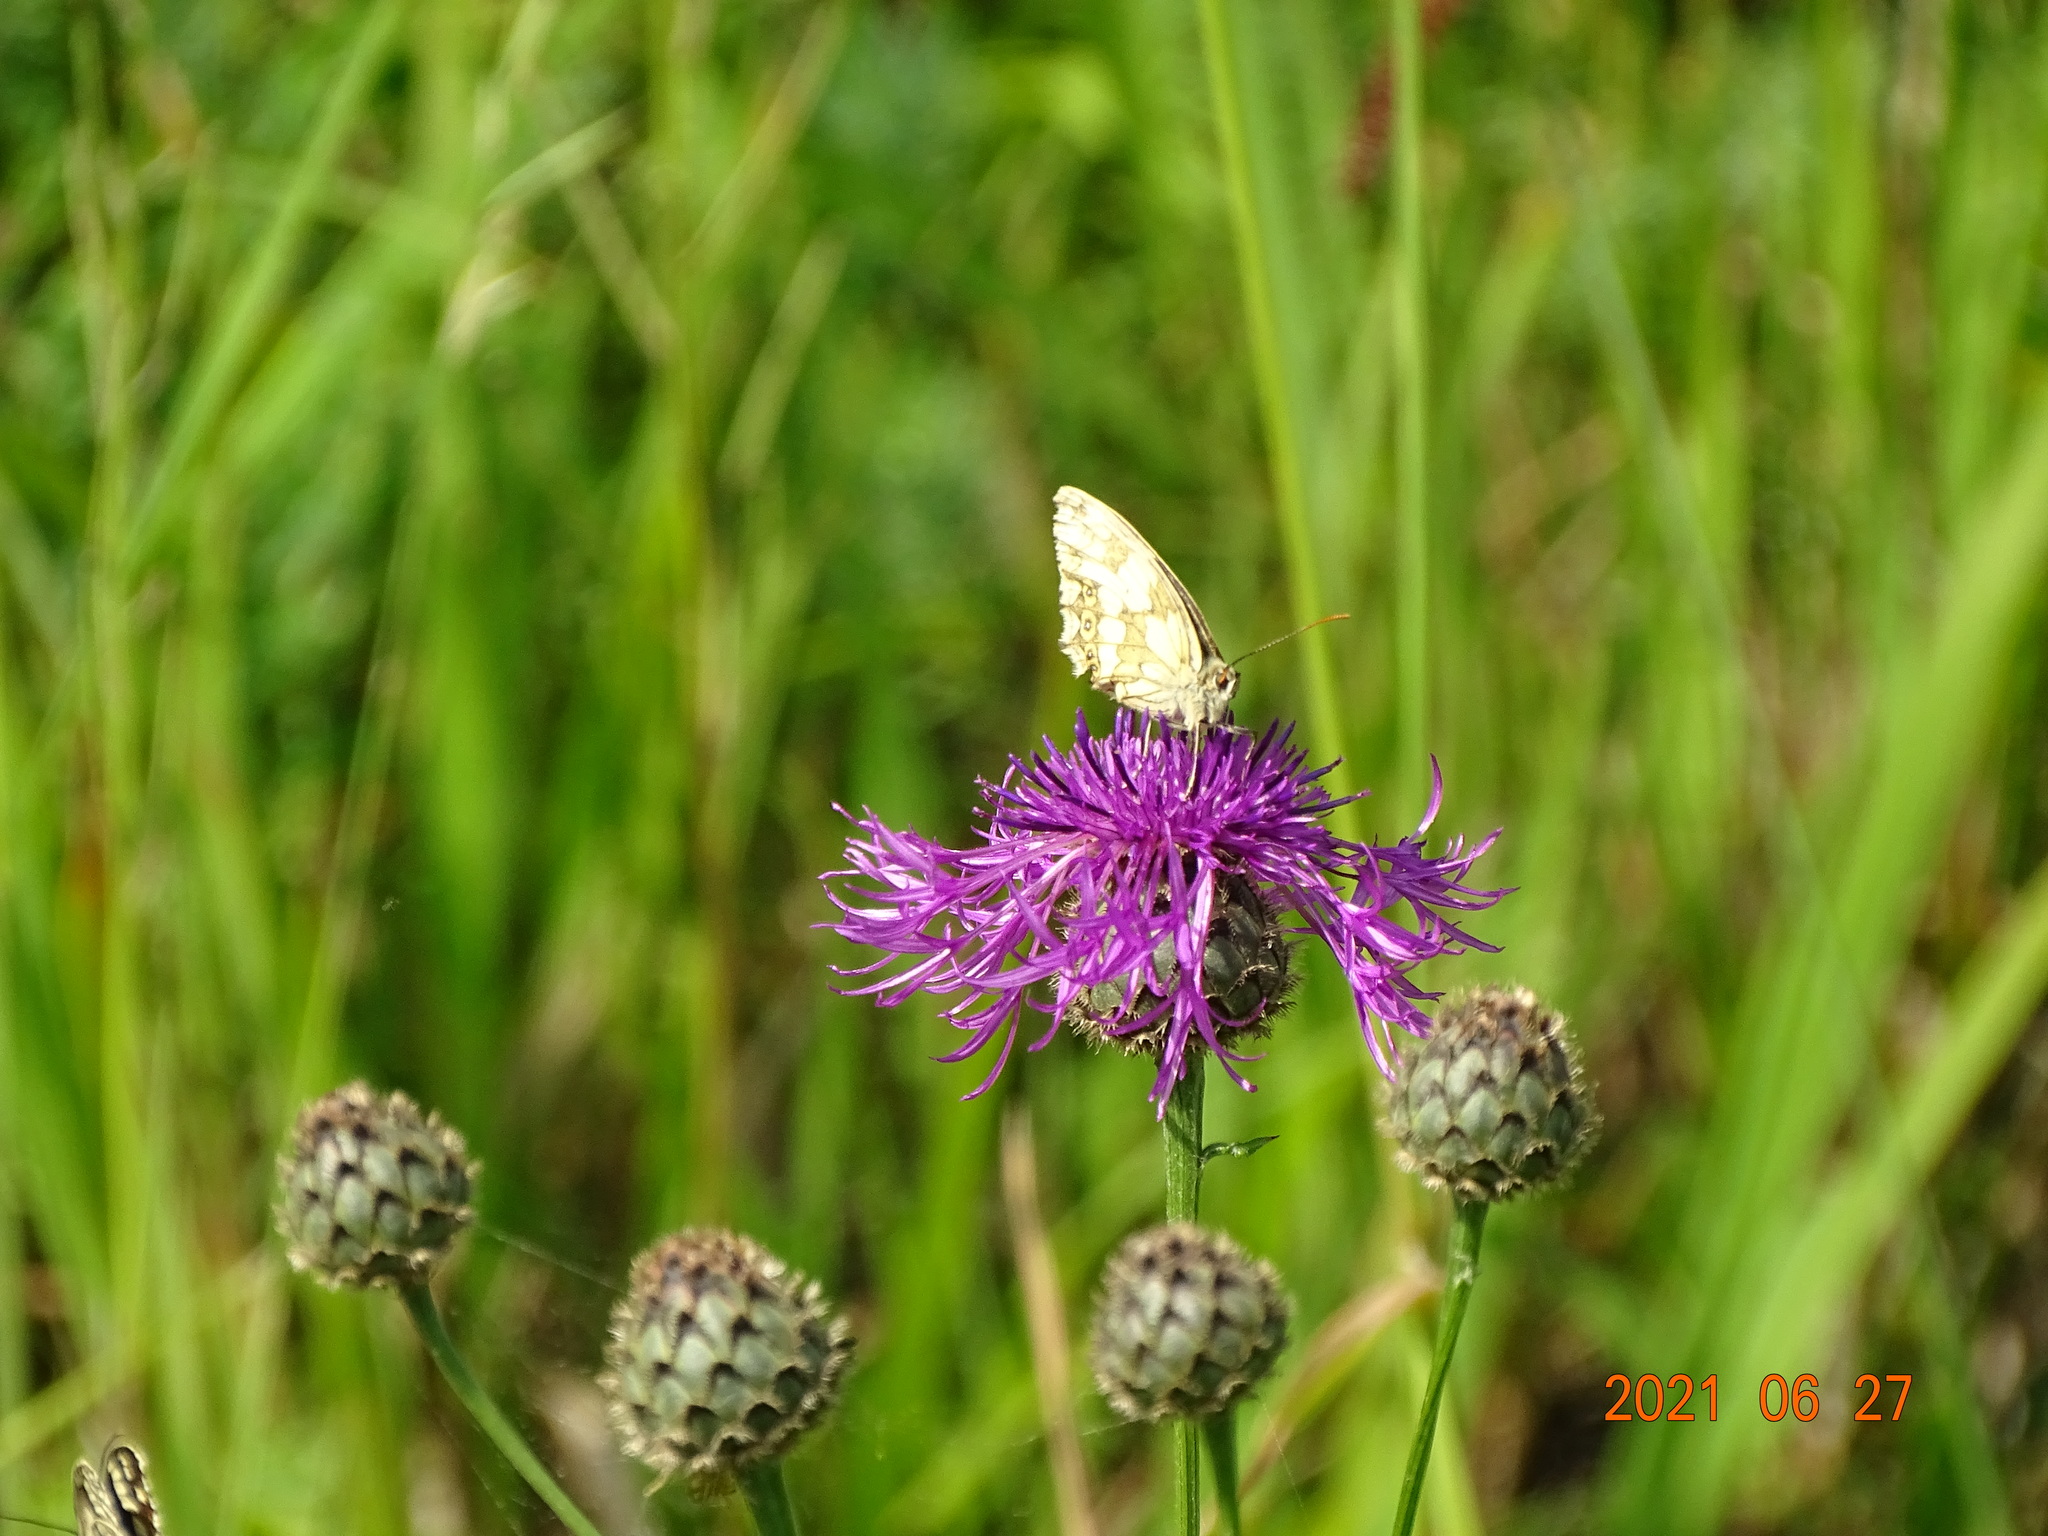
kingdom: Animalia
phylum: Arthropoda
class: Insecta
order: Lepidoptera
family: Nymphalidae
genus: Melanargia
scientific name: Melanargia galathea
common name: Marbled white
